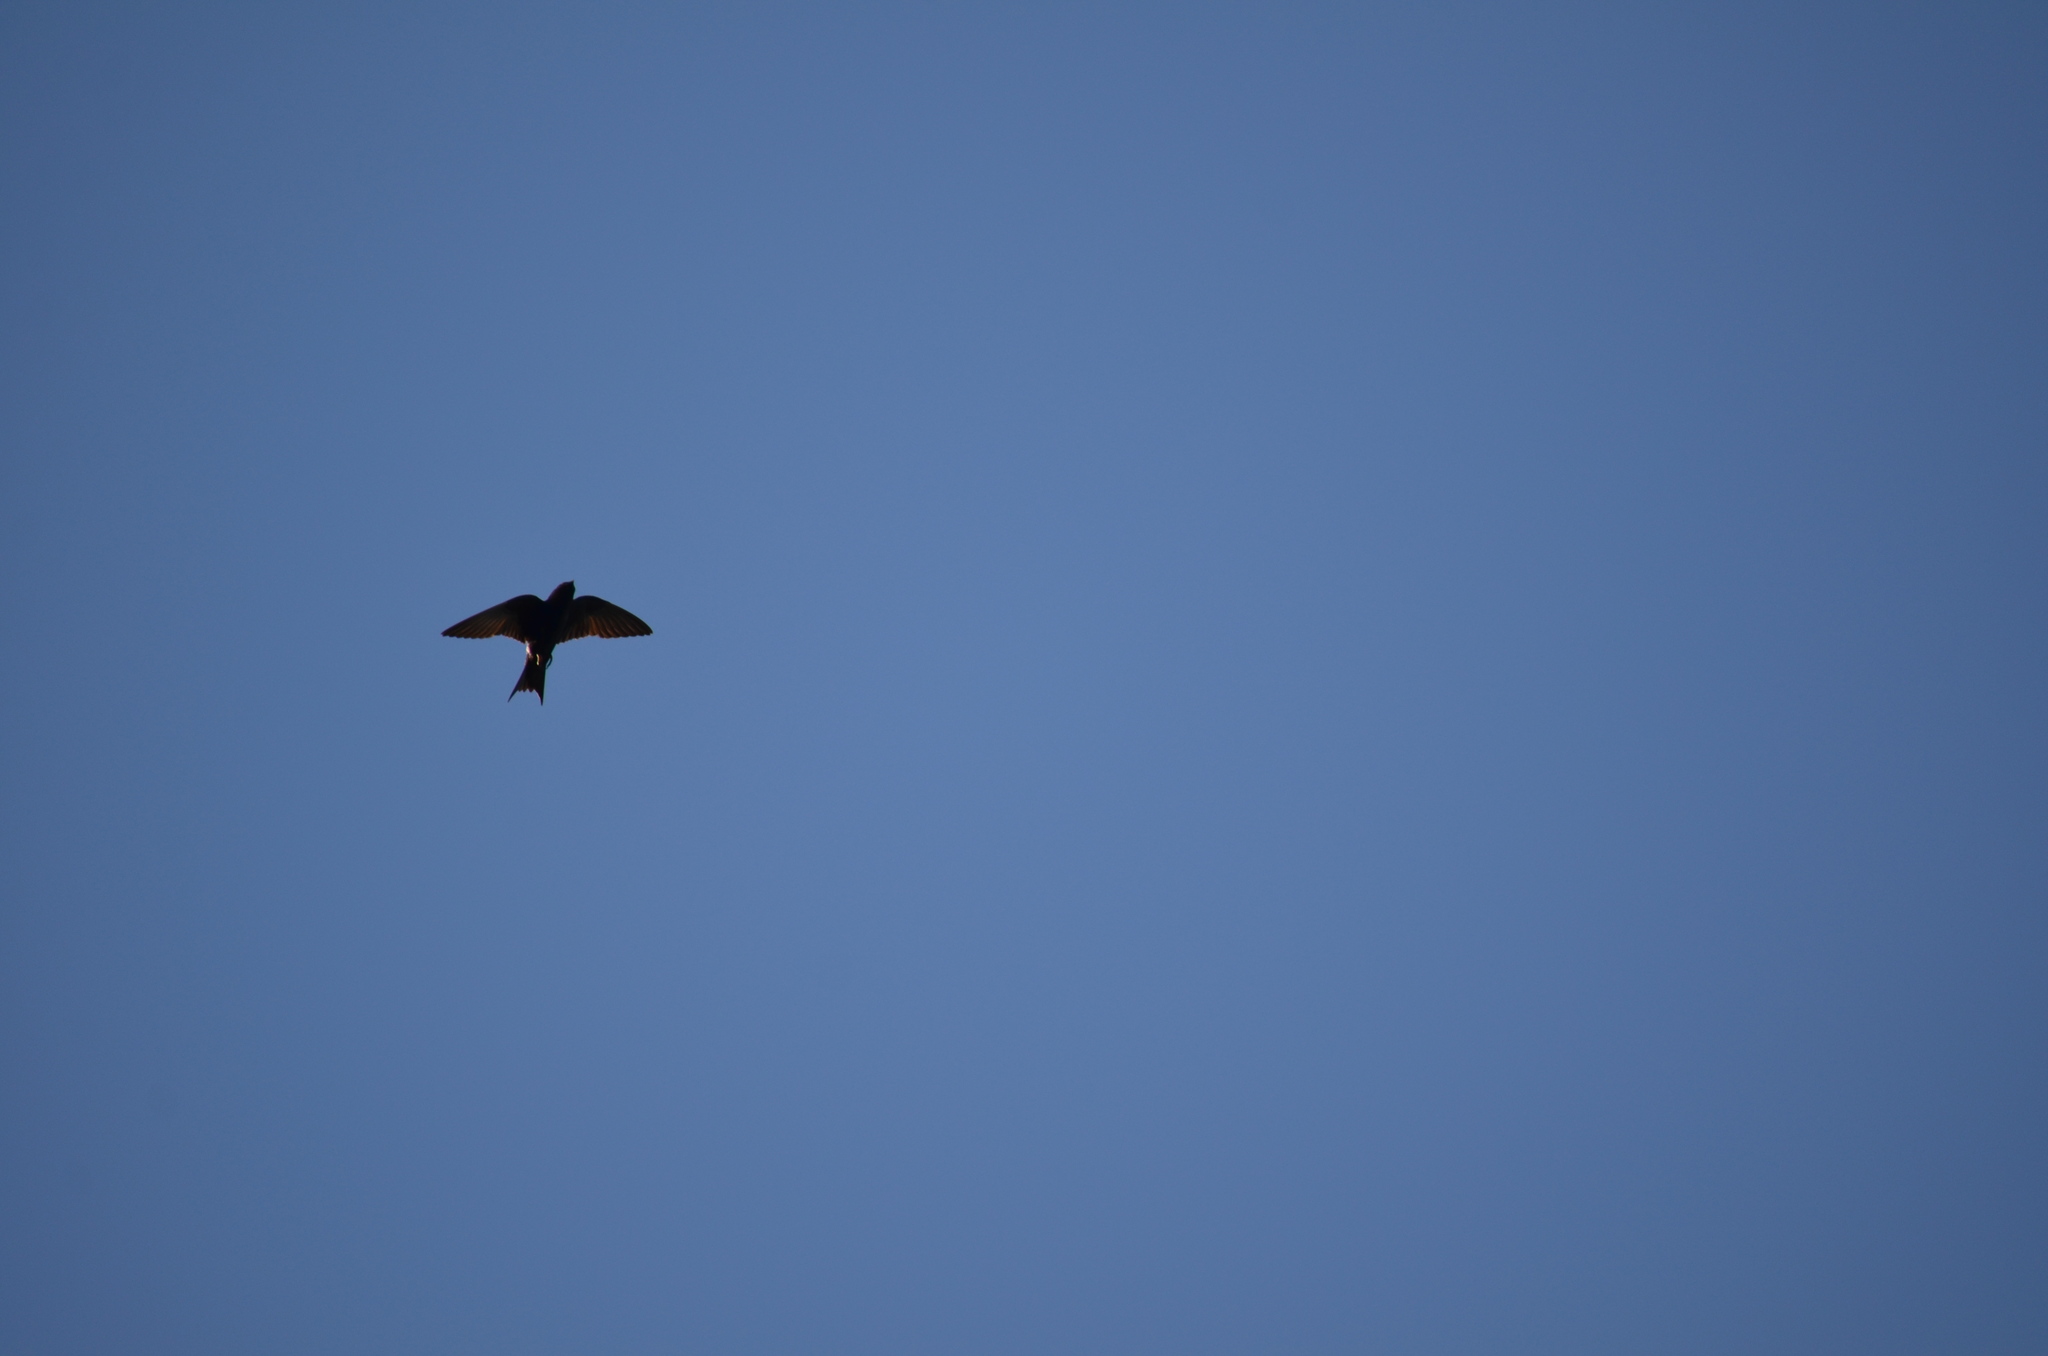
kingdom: Animalia
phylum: Chordata
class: Aves
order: Passeriformes
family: Hirundinidae
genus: Progne
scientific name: Progne subis
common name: Purple martin
